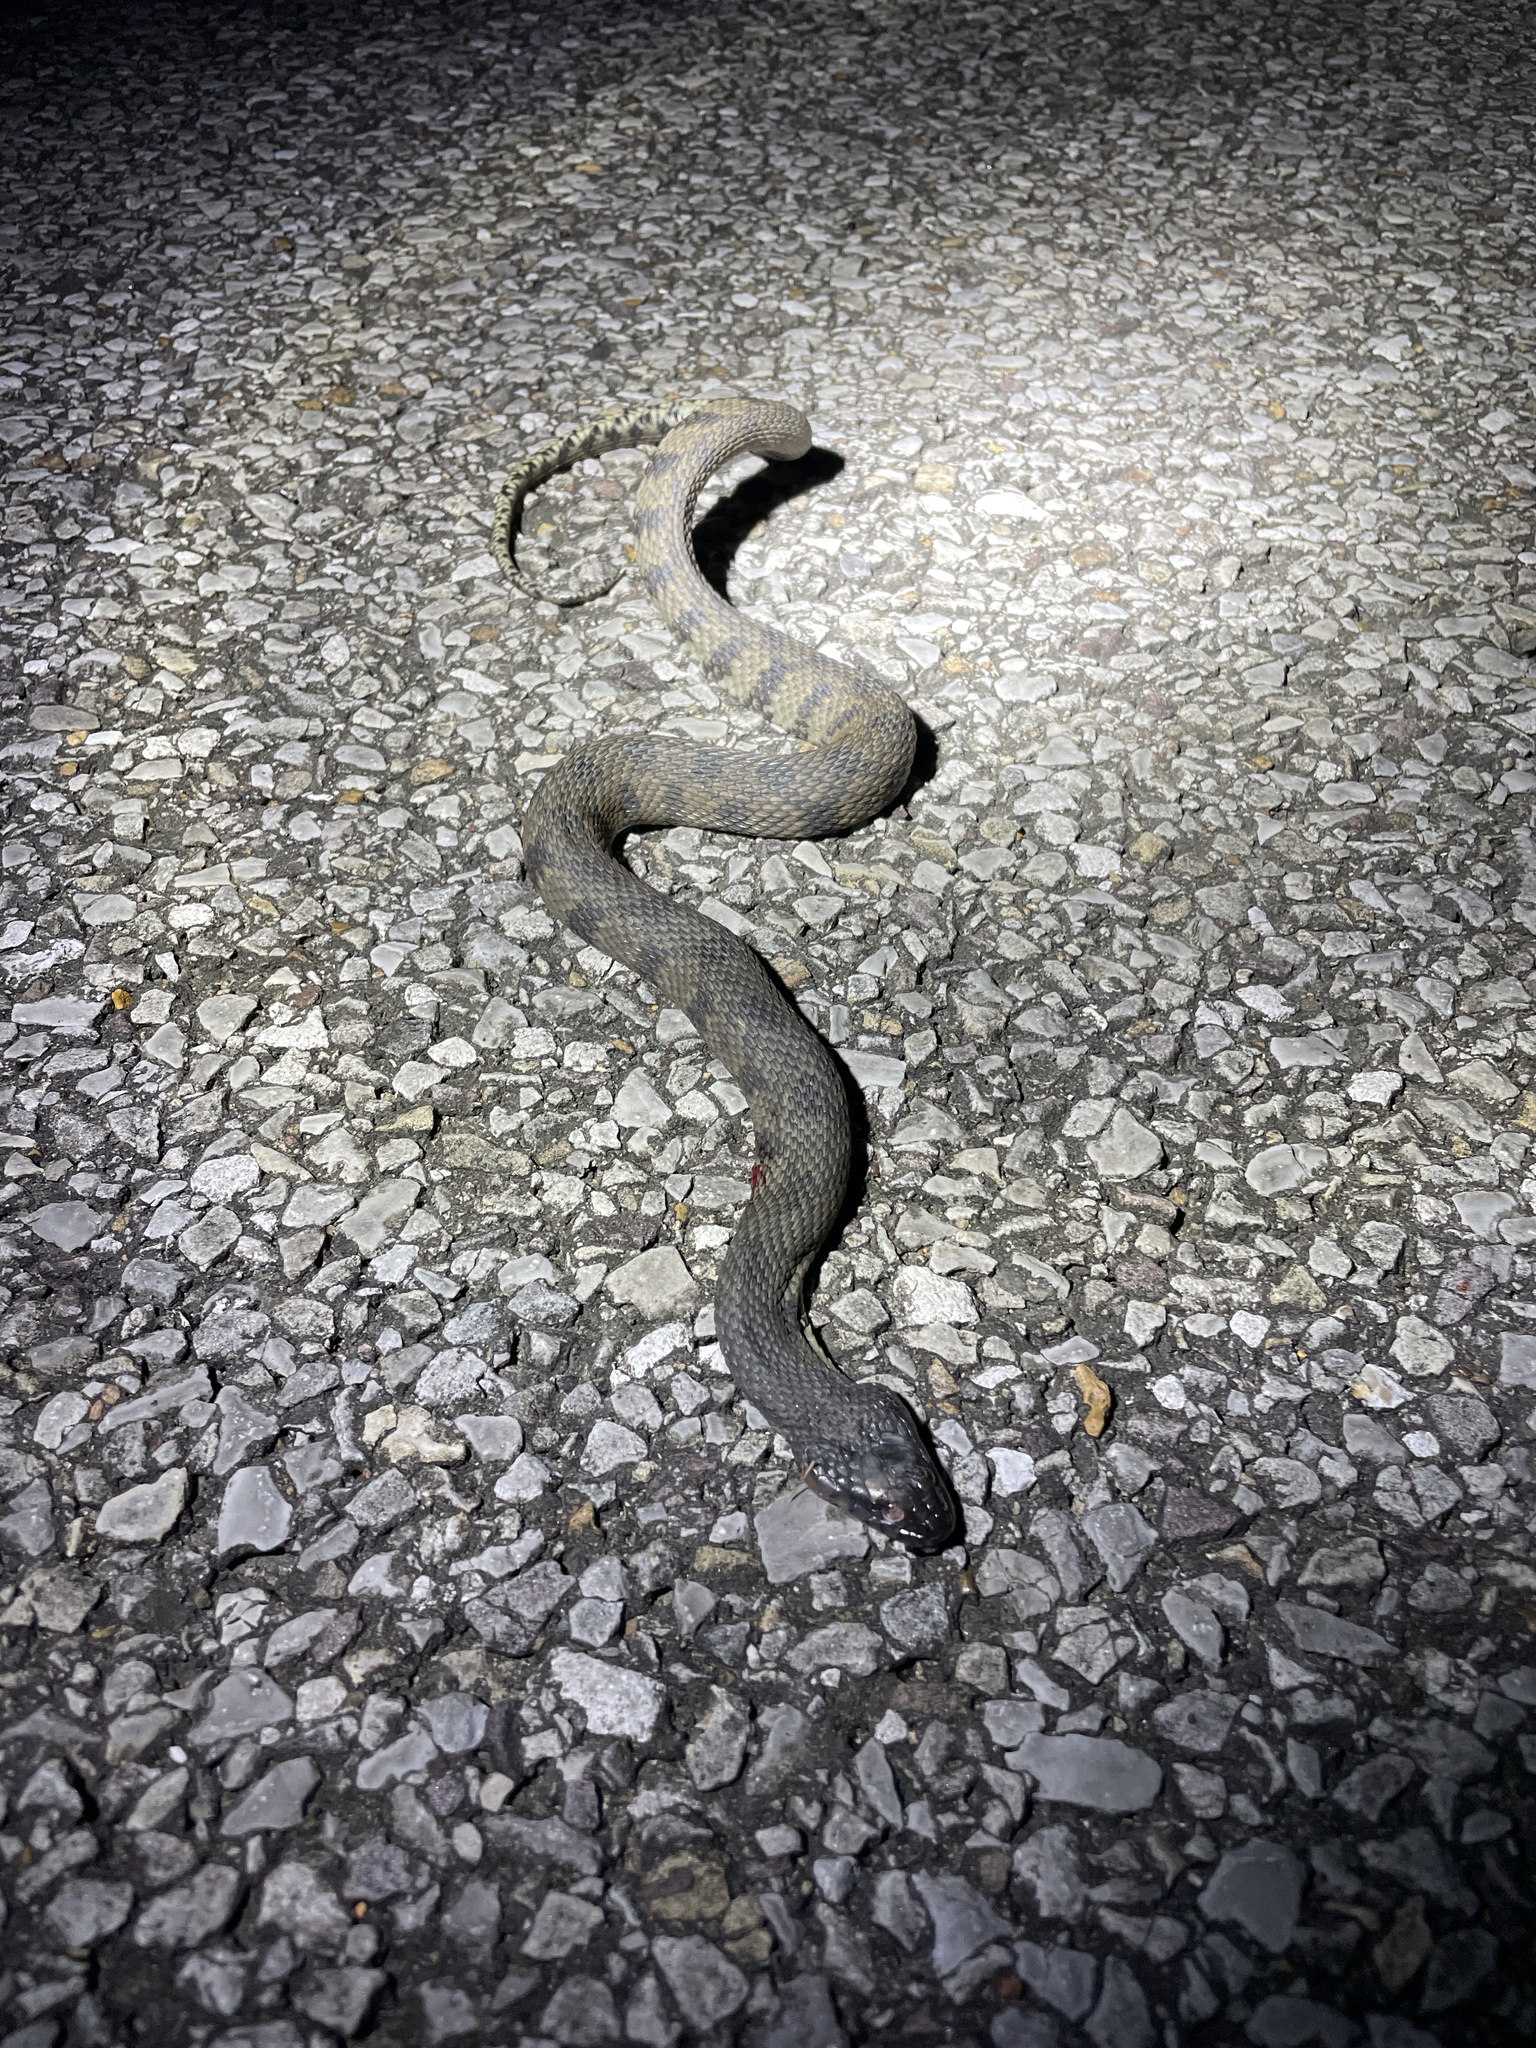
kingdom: Animalia
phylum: Chordata
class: Squamata
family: Colubridae
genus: Nerodia
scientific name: Nerodia rhombifer
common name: Diamondback water snake
